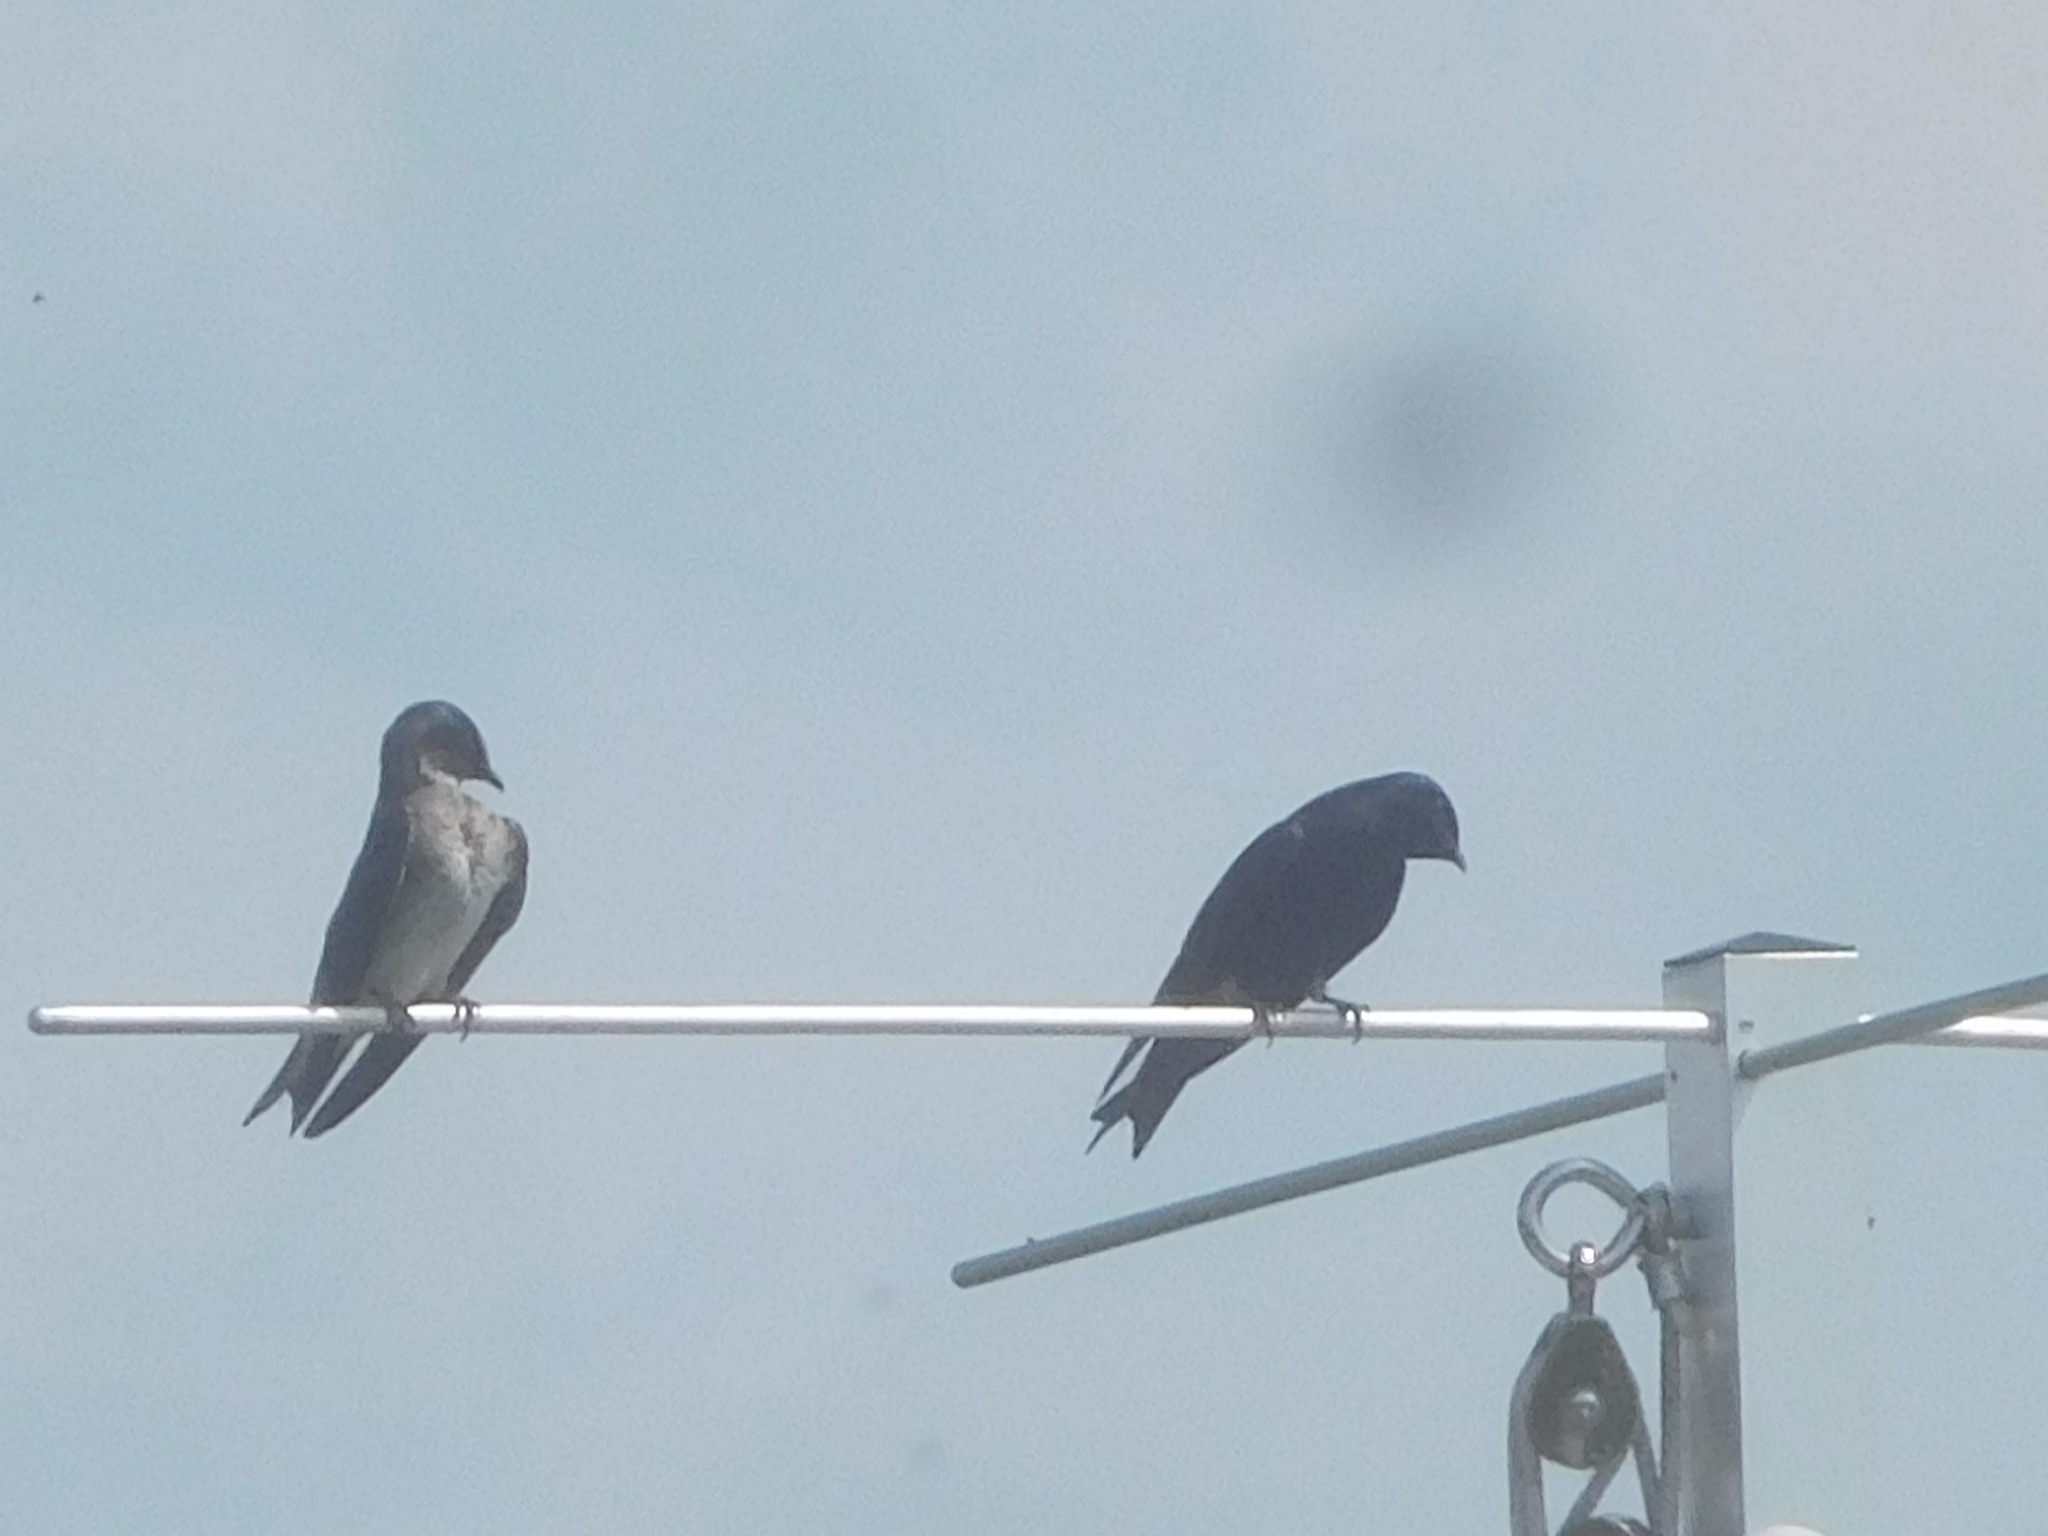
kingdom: Animalia
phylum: Chordata
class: Aves
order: Passeriformes
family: Hirundinidae
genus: Progne
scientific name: Progne subis
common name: Purple martin
